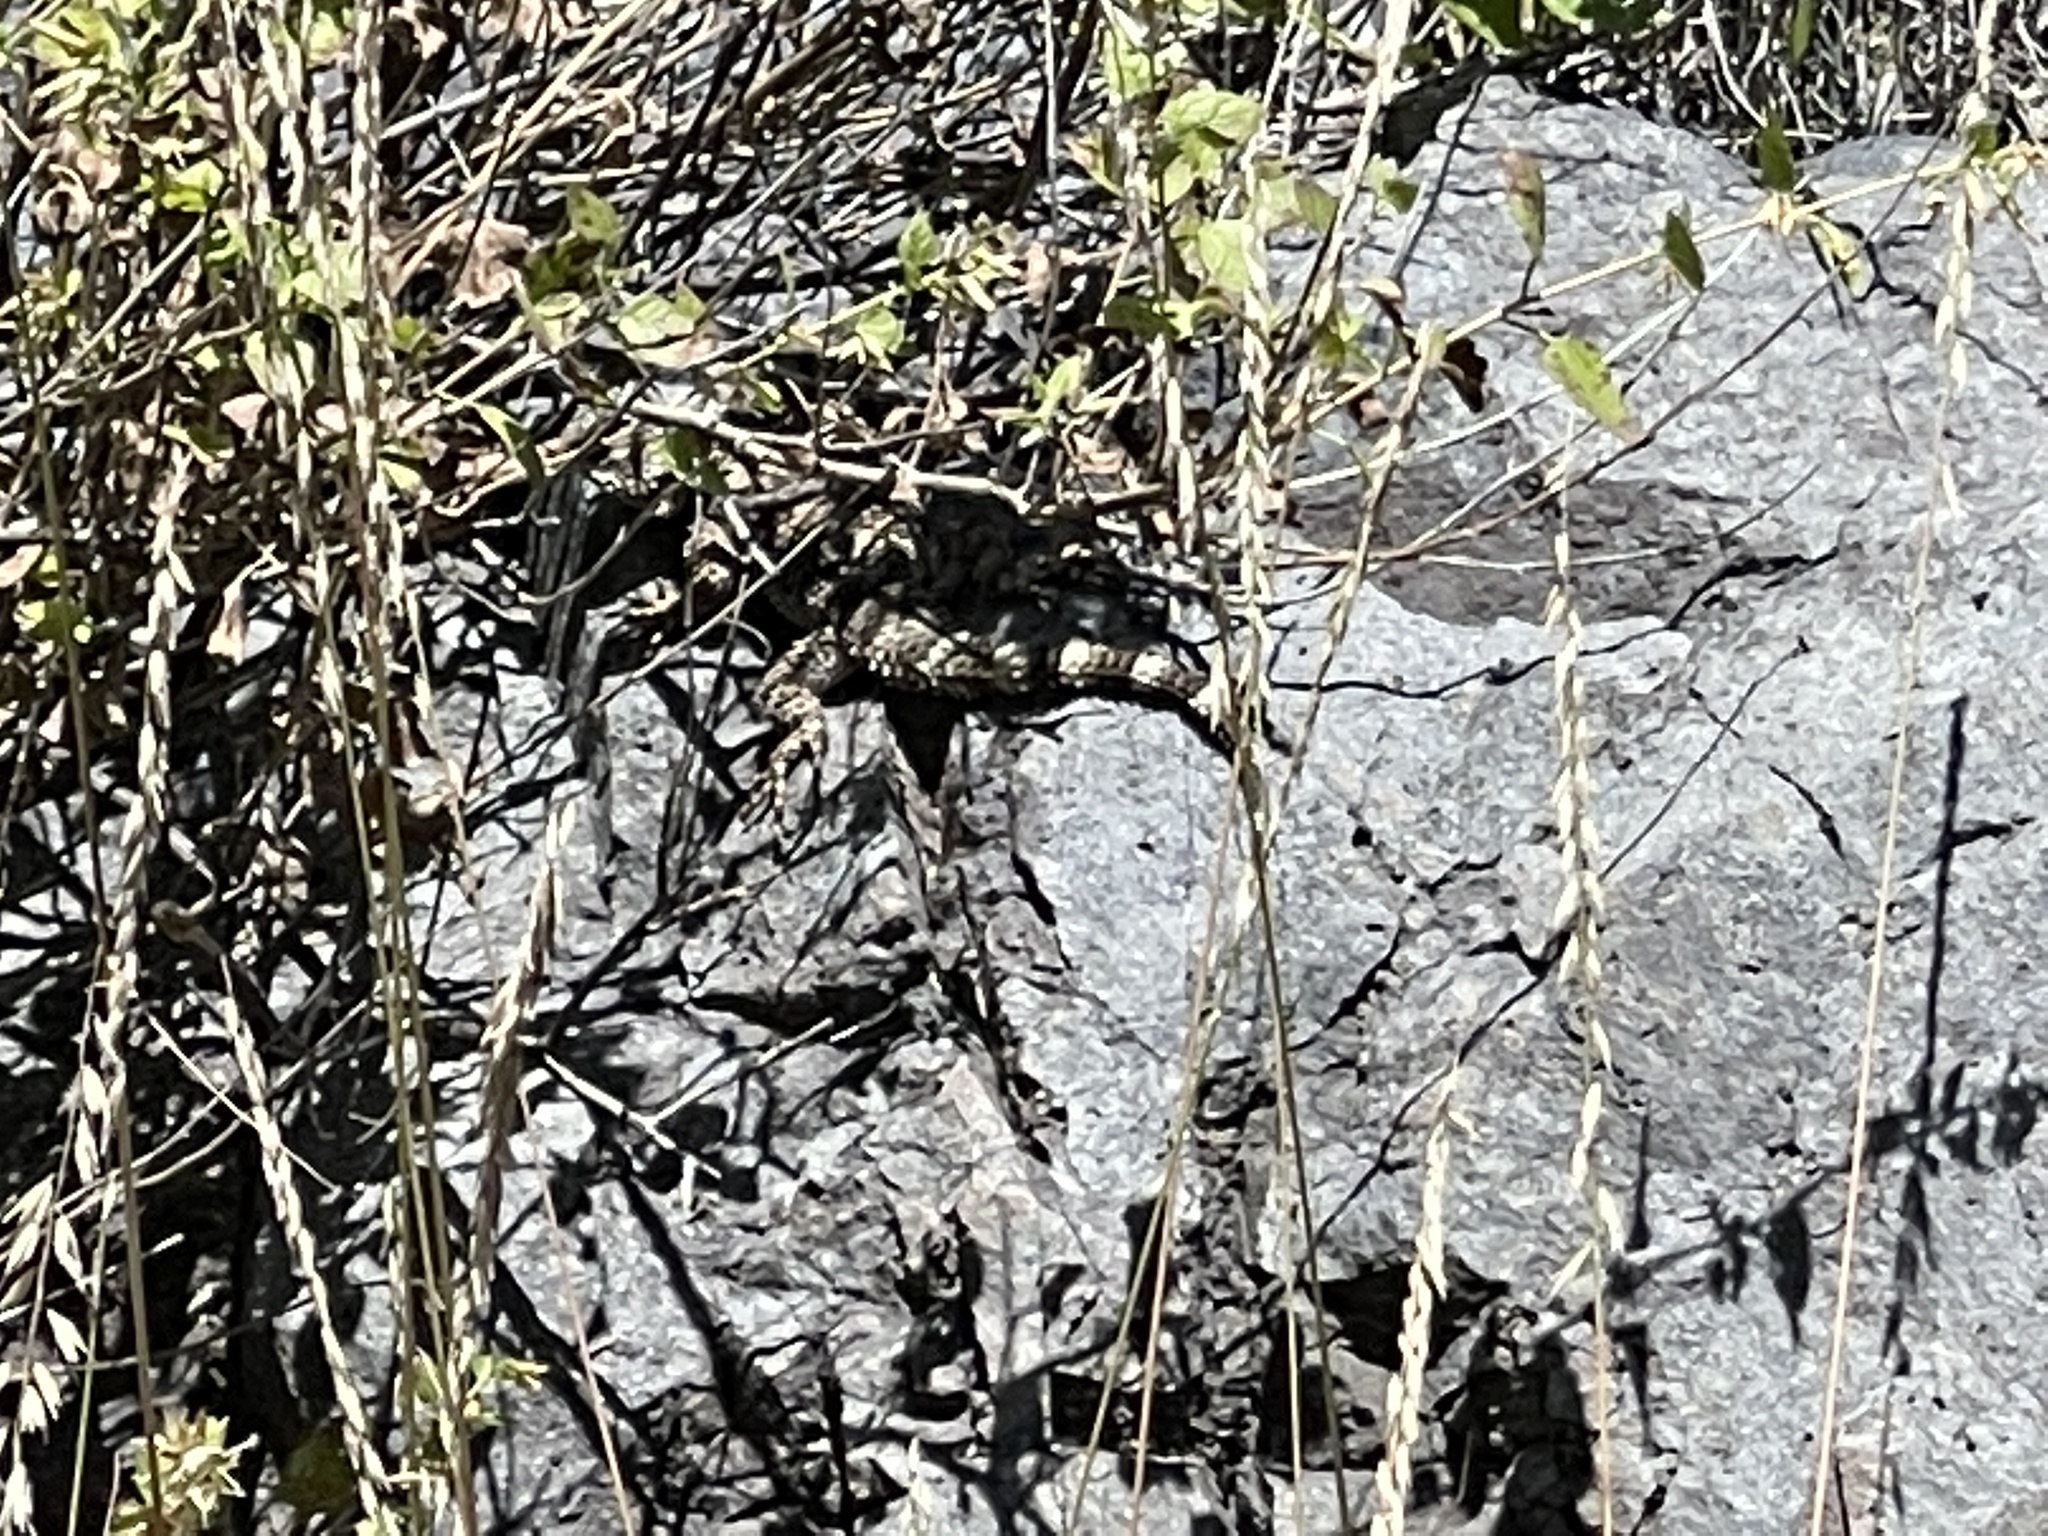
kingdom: Animalia
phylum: Chordata
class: Squamata
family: Phrynosomatidae
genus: Sceloporus
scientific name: Sceloporus poinsettii
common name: Crevice spiny lizard
